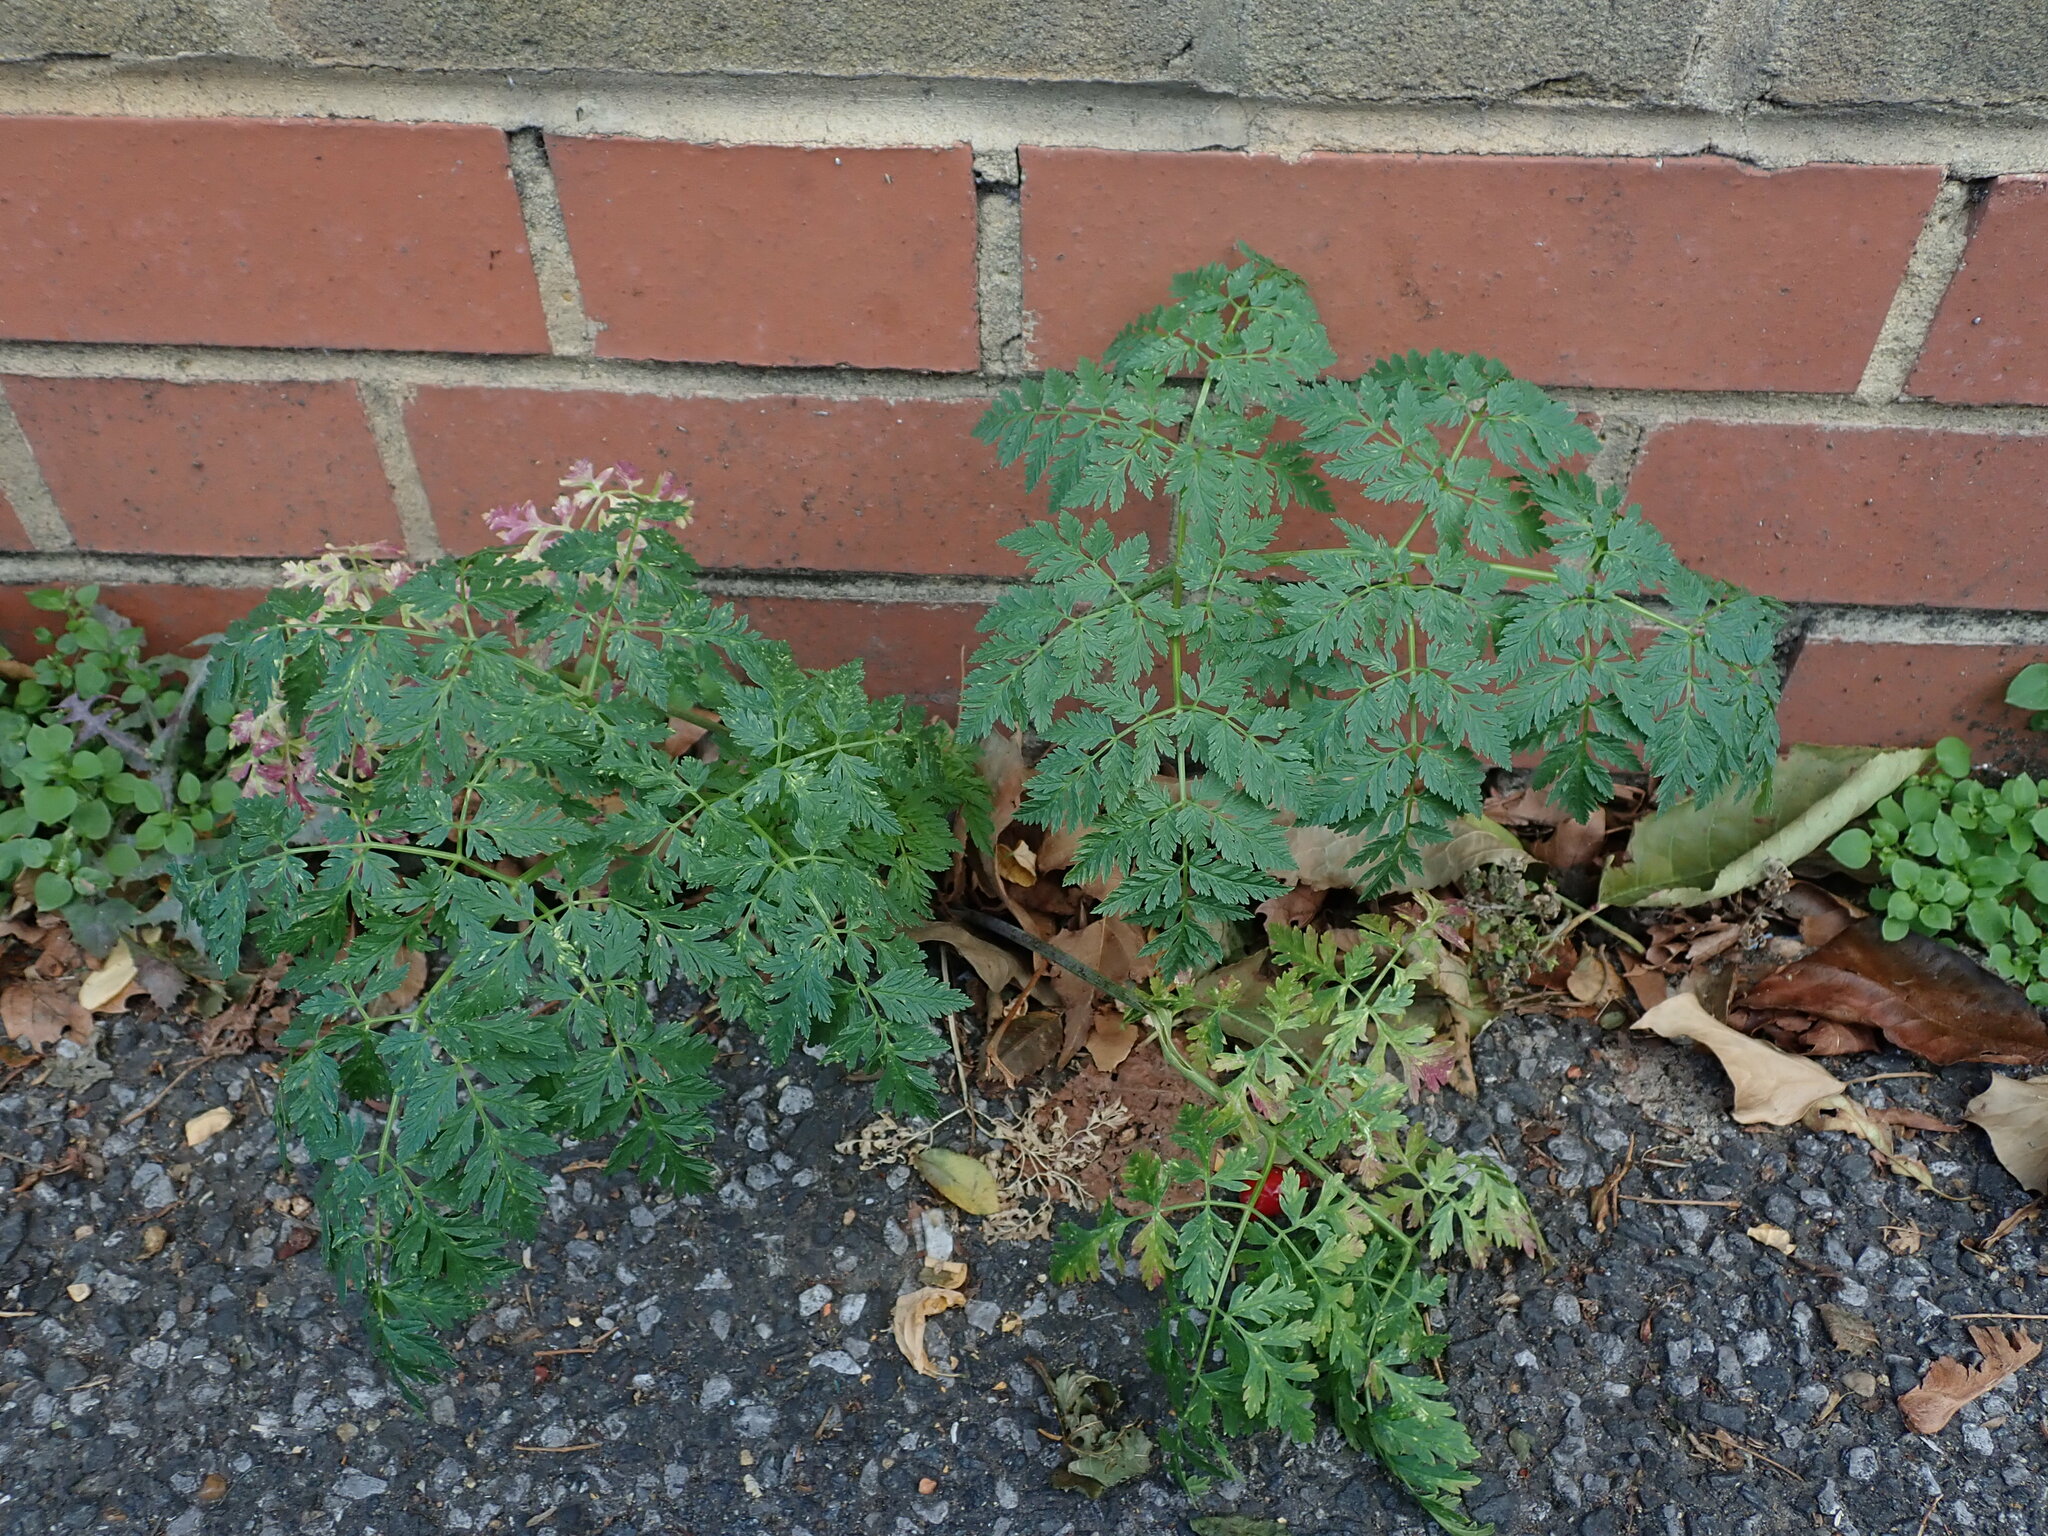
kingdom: Plantae
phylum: Tracheophyta
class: Magnoliopsida
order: Apiales
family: Apiaceae
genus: Conium
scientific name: Conium maculatum
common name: Hemlock
